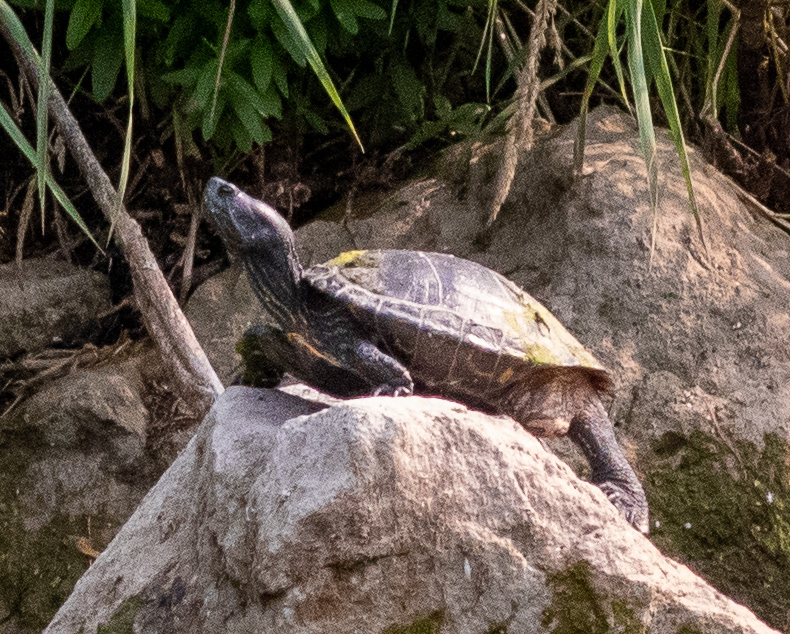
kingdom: Animalia
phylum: Chordata
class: Testudines
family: Emydidae
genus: Trachemys
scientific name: Trachemys scripta
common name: Slider
